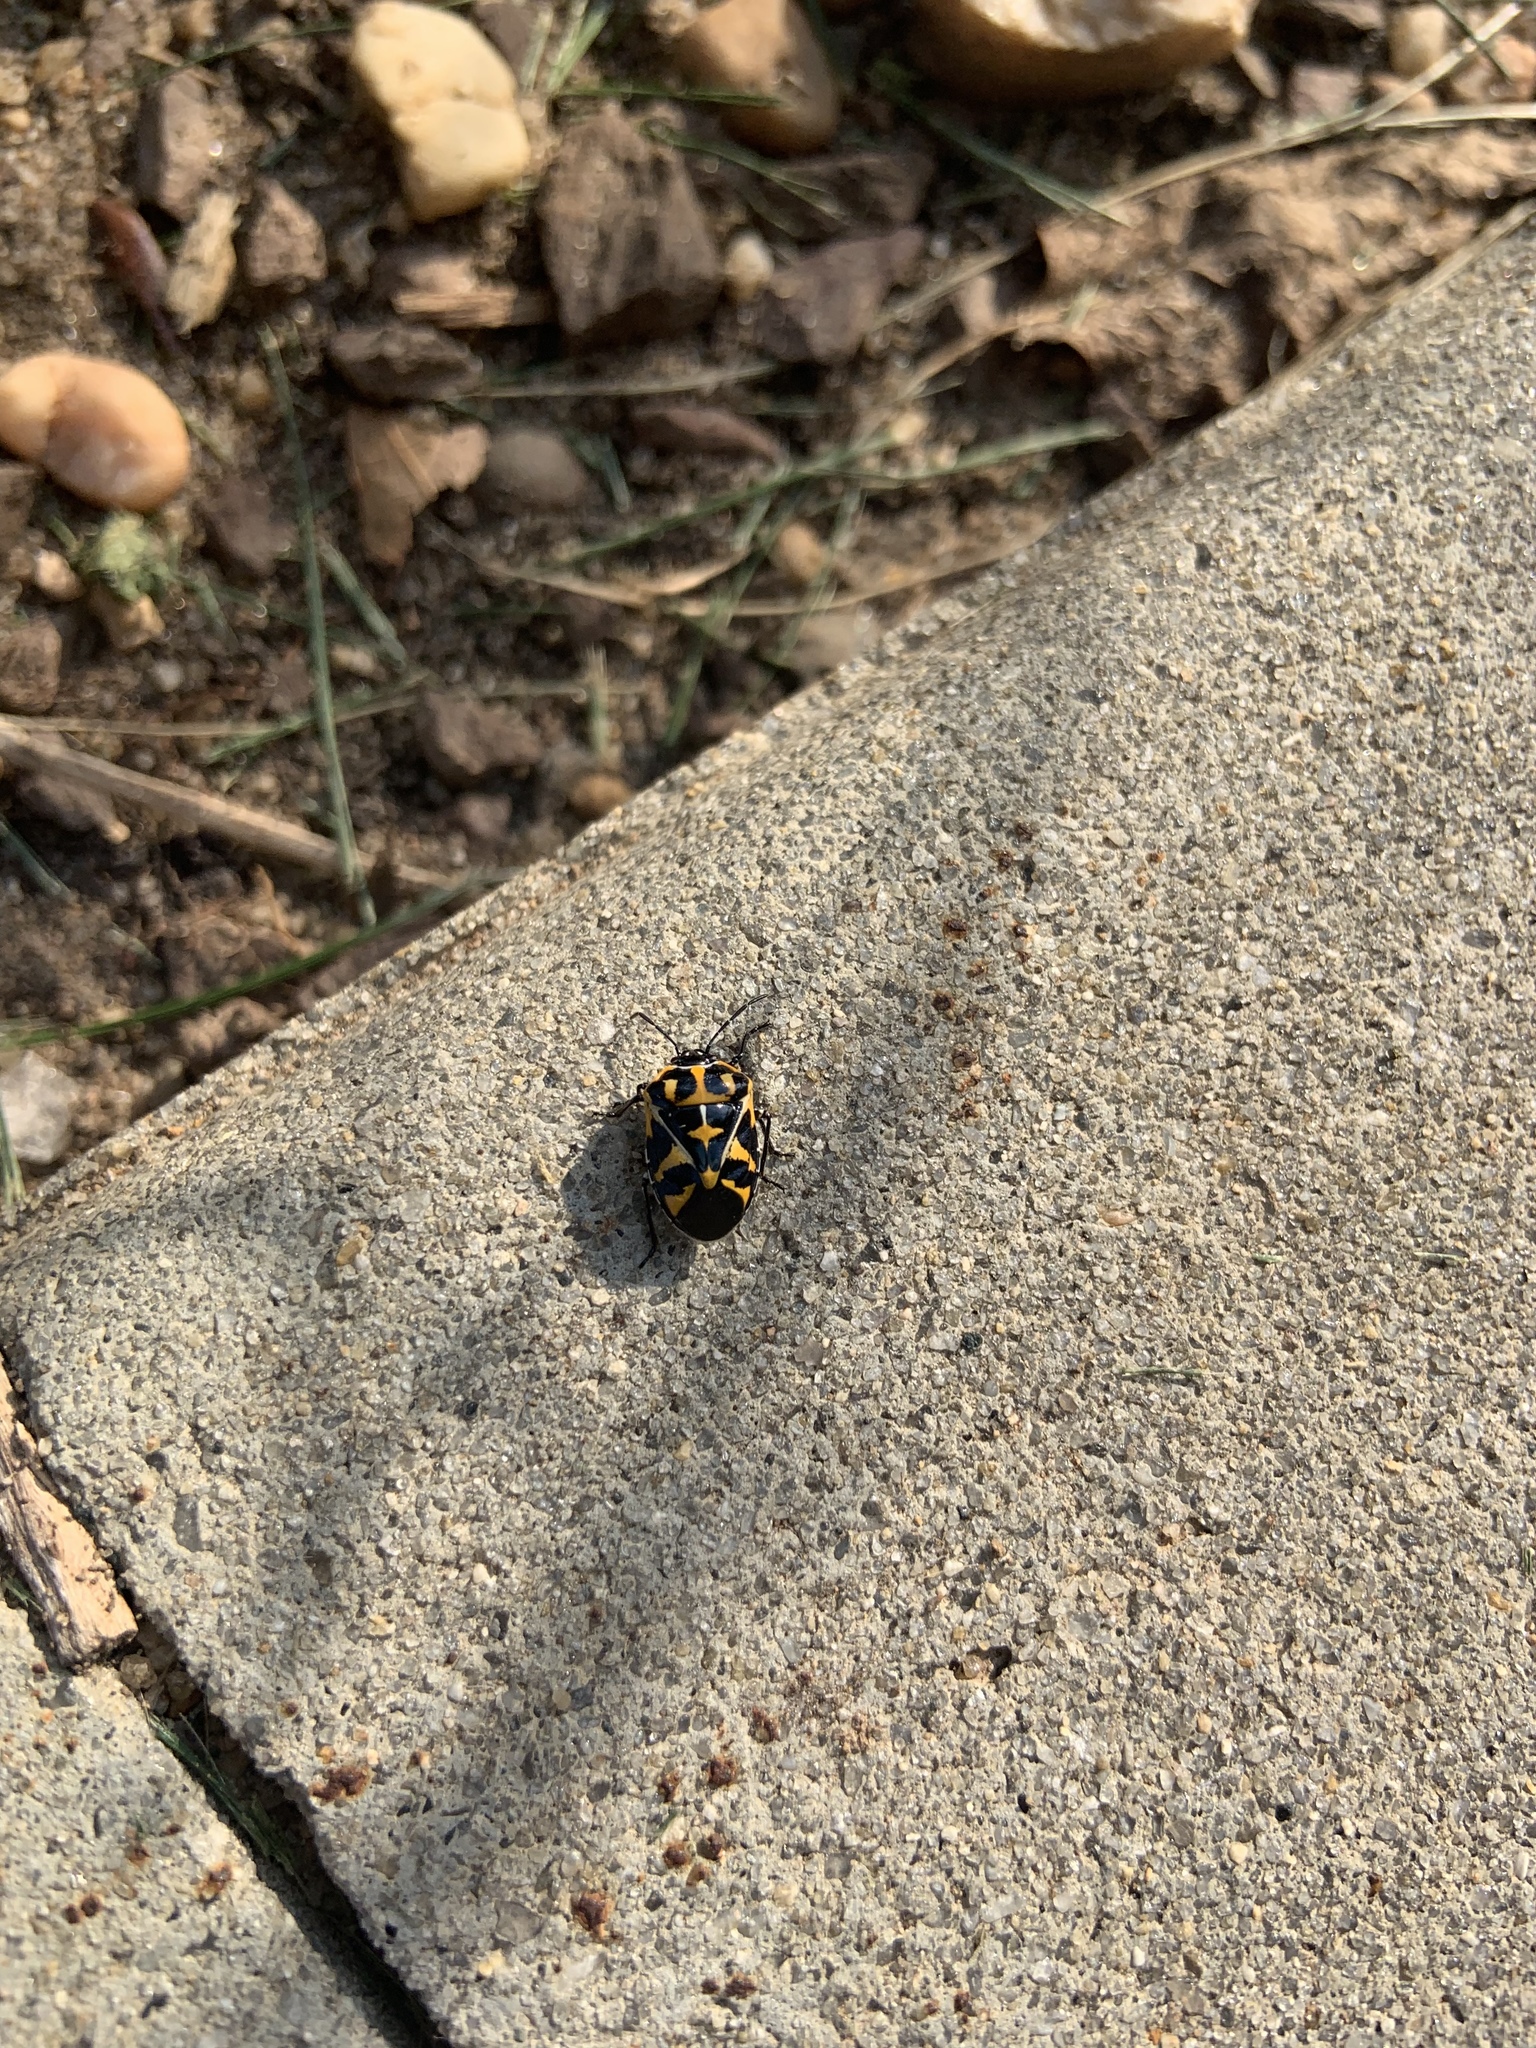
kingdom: Animalia
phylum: Arthropoda
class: Insecta
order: Hemiptera
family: Pentatomidae
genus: Murgantia
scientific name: Murgantia histrionica
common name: Harlequin bug
